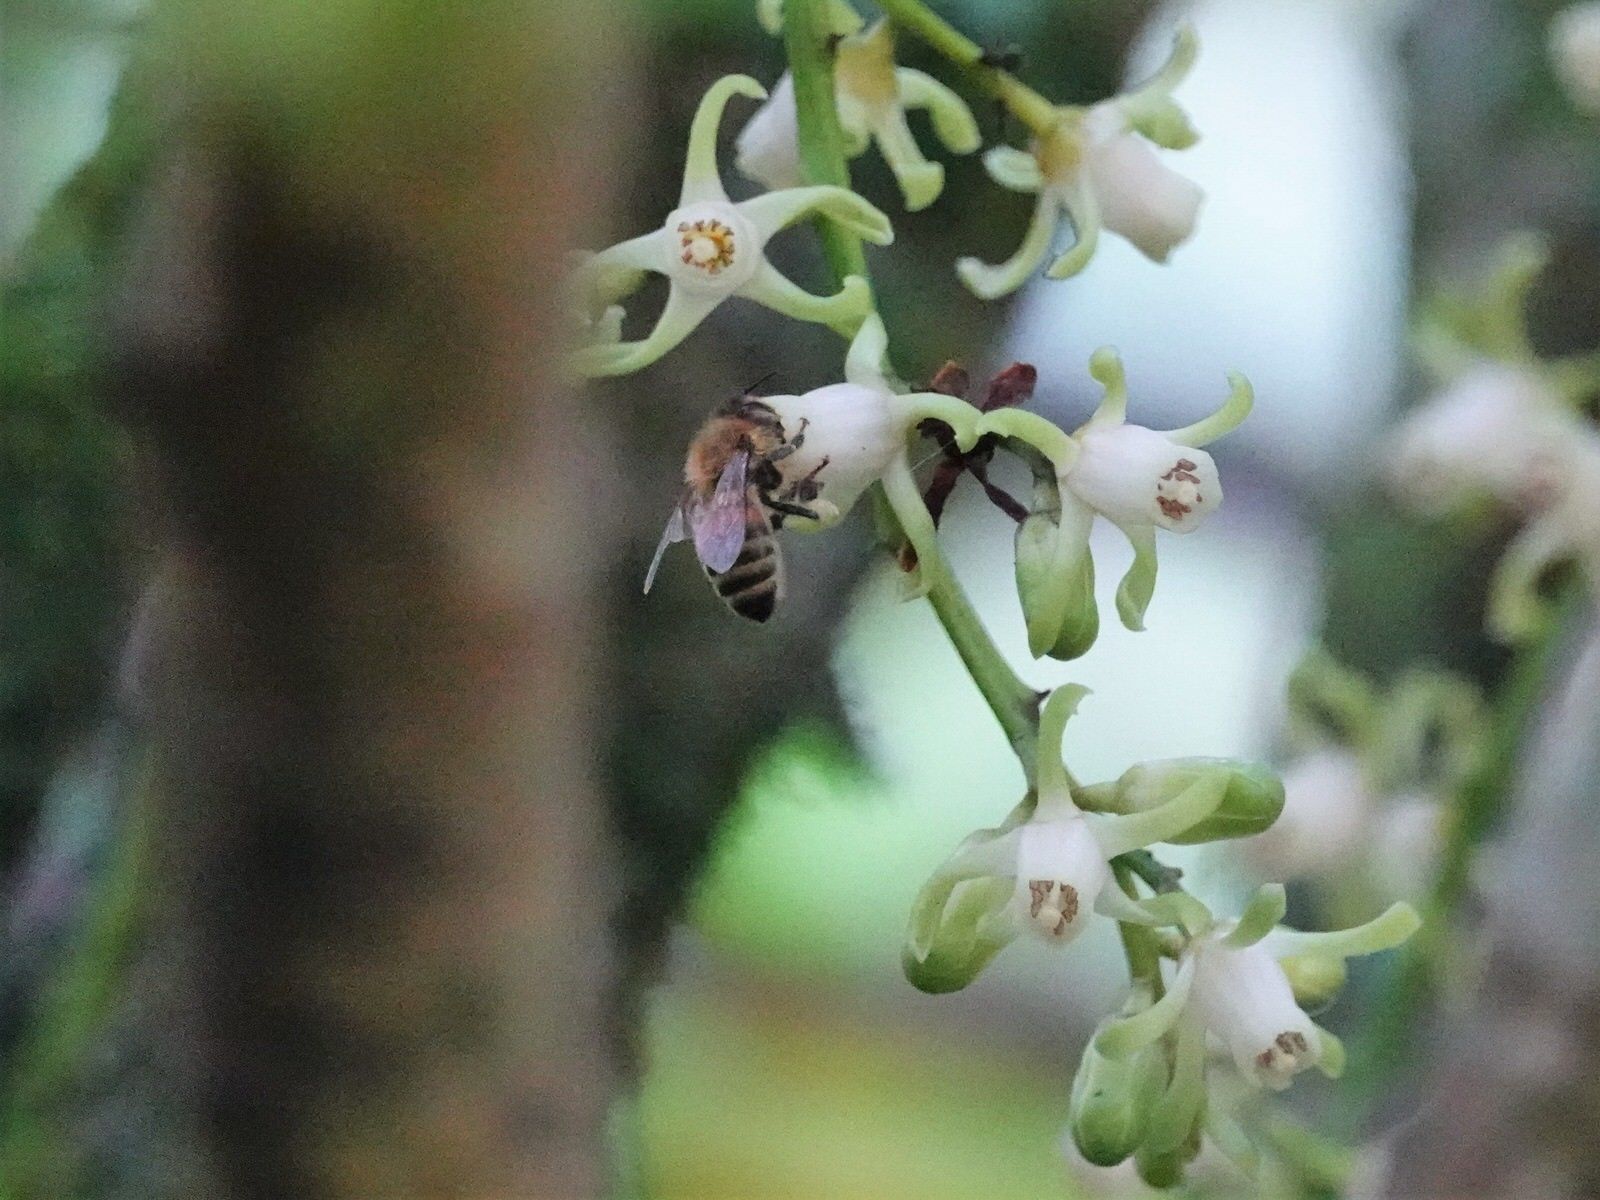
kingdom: Animalia
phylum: Arthropoda
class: Insecta
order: Hymenoptera
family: Apidae
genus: Apis
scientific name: Apis mellifera
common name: Honey bee
